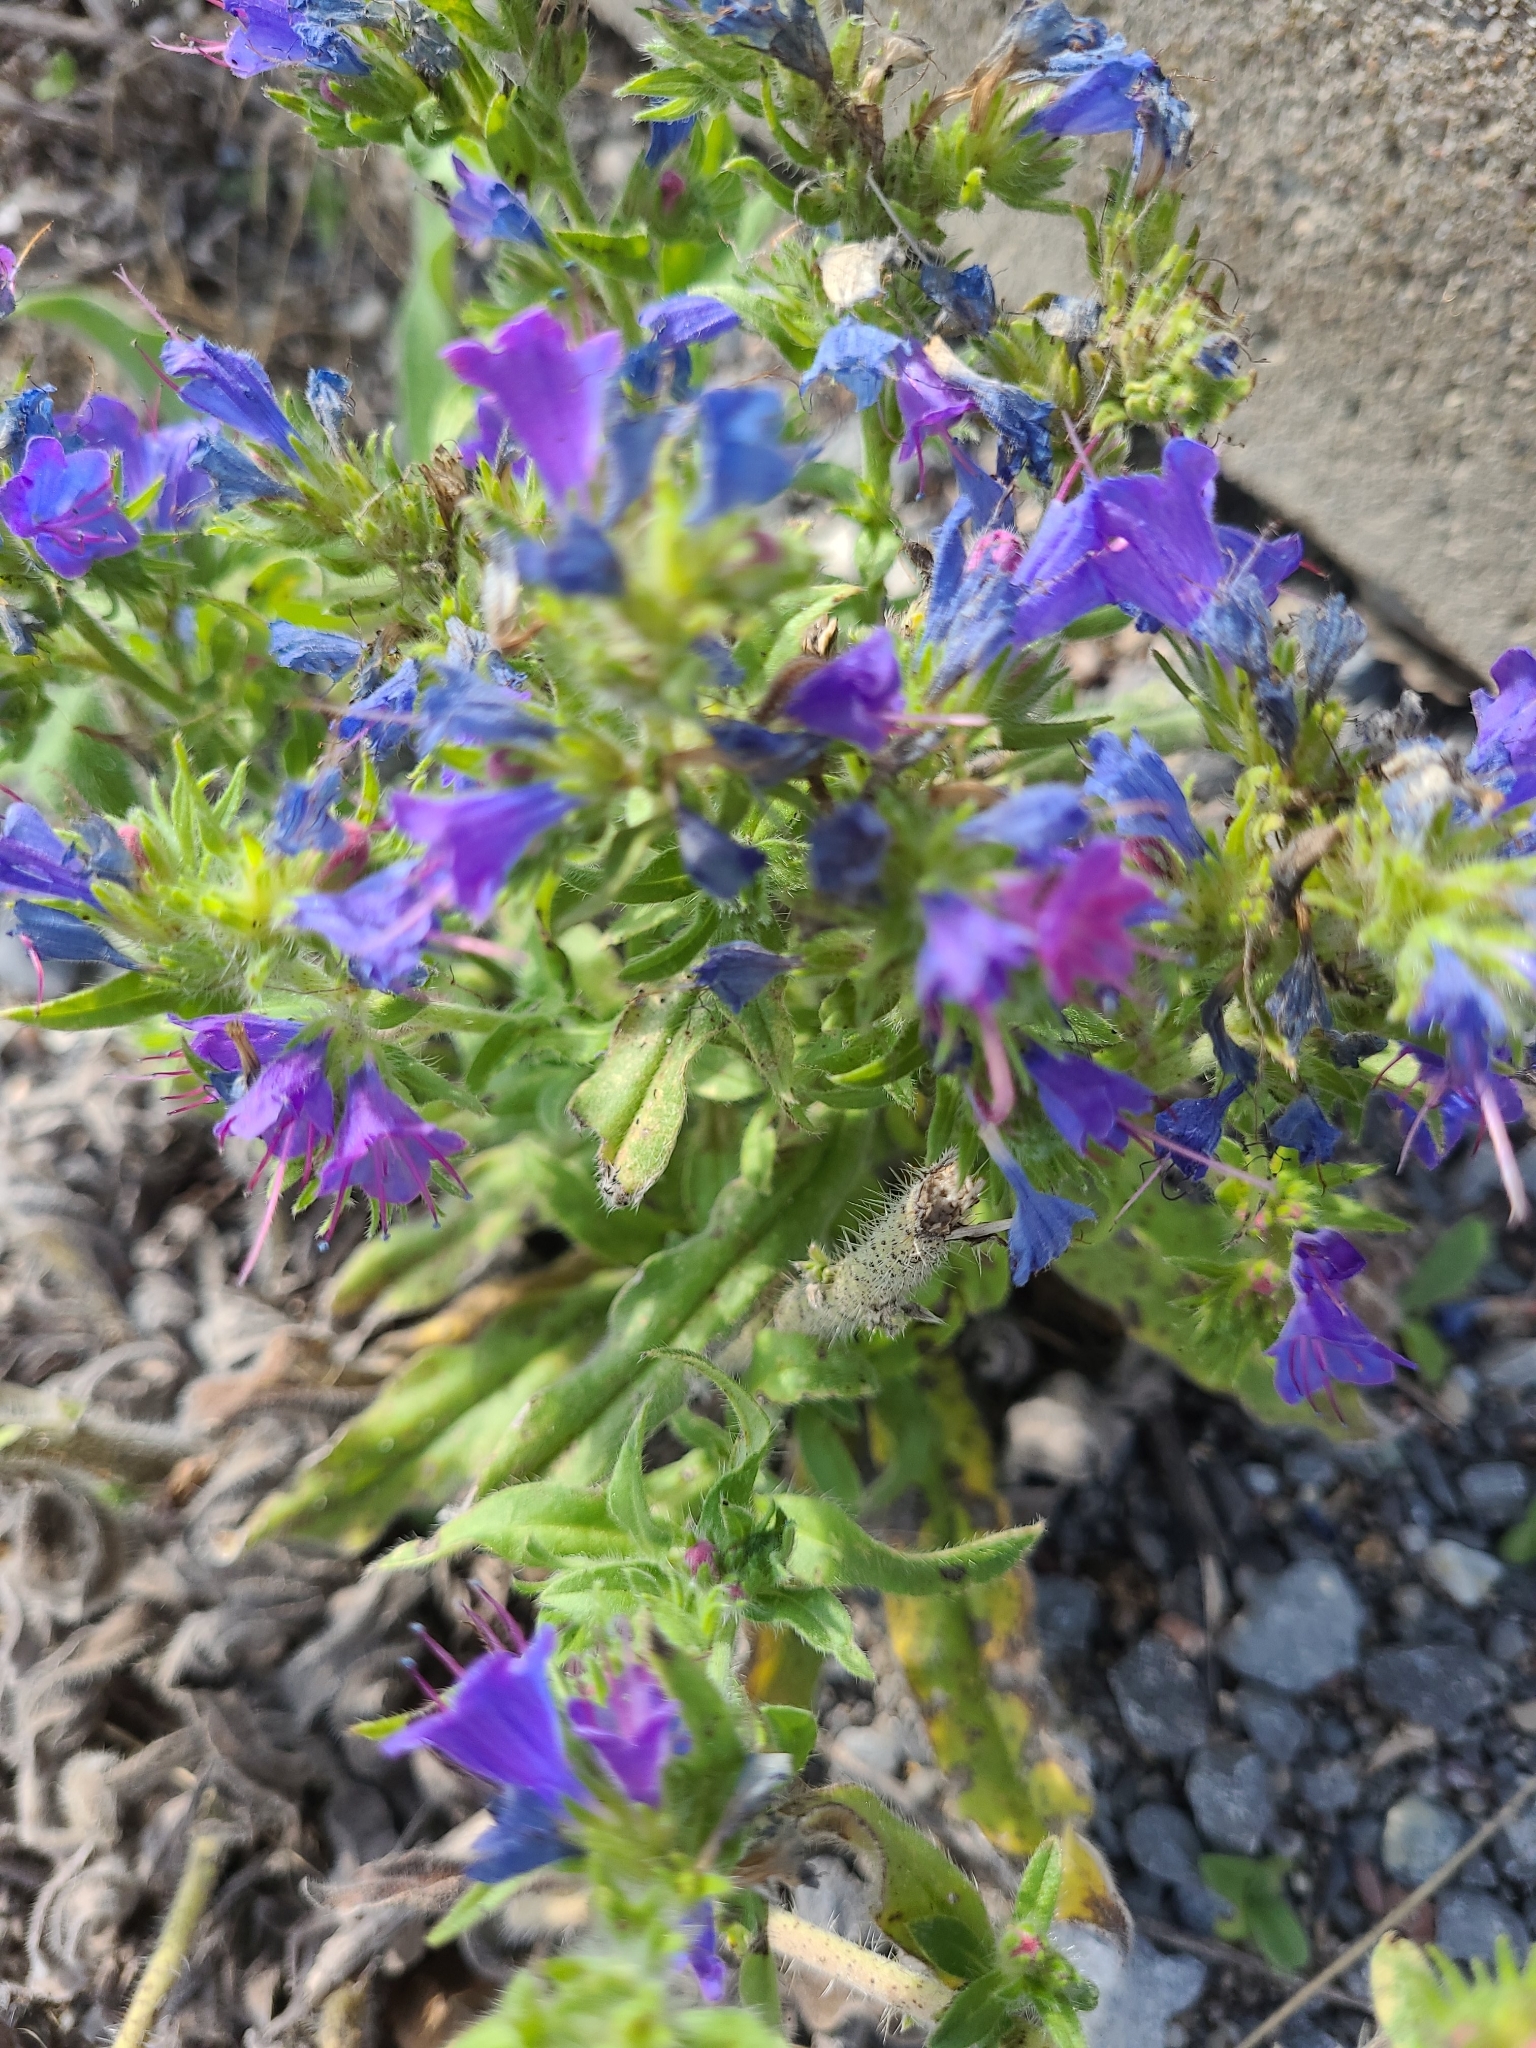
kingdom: Plantae
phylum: Tracheophyta
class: Magnoliopsida
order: Boraginales
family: Boraginaceae
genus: Echium
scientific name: Echium vulgare
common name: Common viper's bugloss
